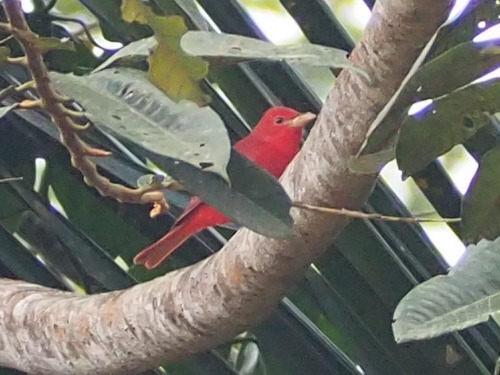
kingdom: Animalia
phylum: Chordata
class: Aves
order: Passeriformes
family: Cardinalidae
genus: Piranga
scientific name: Piranga rubra
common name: Summer tanager
